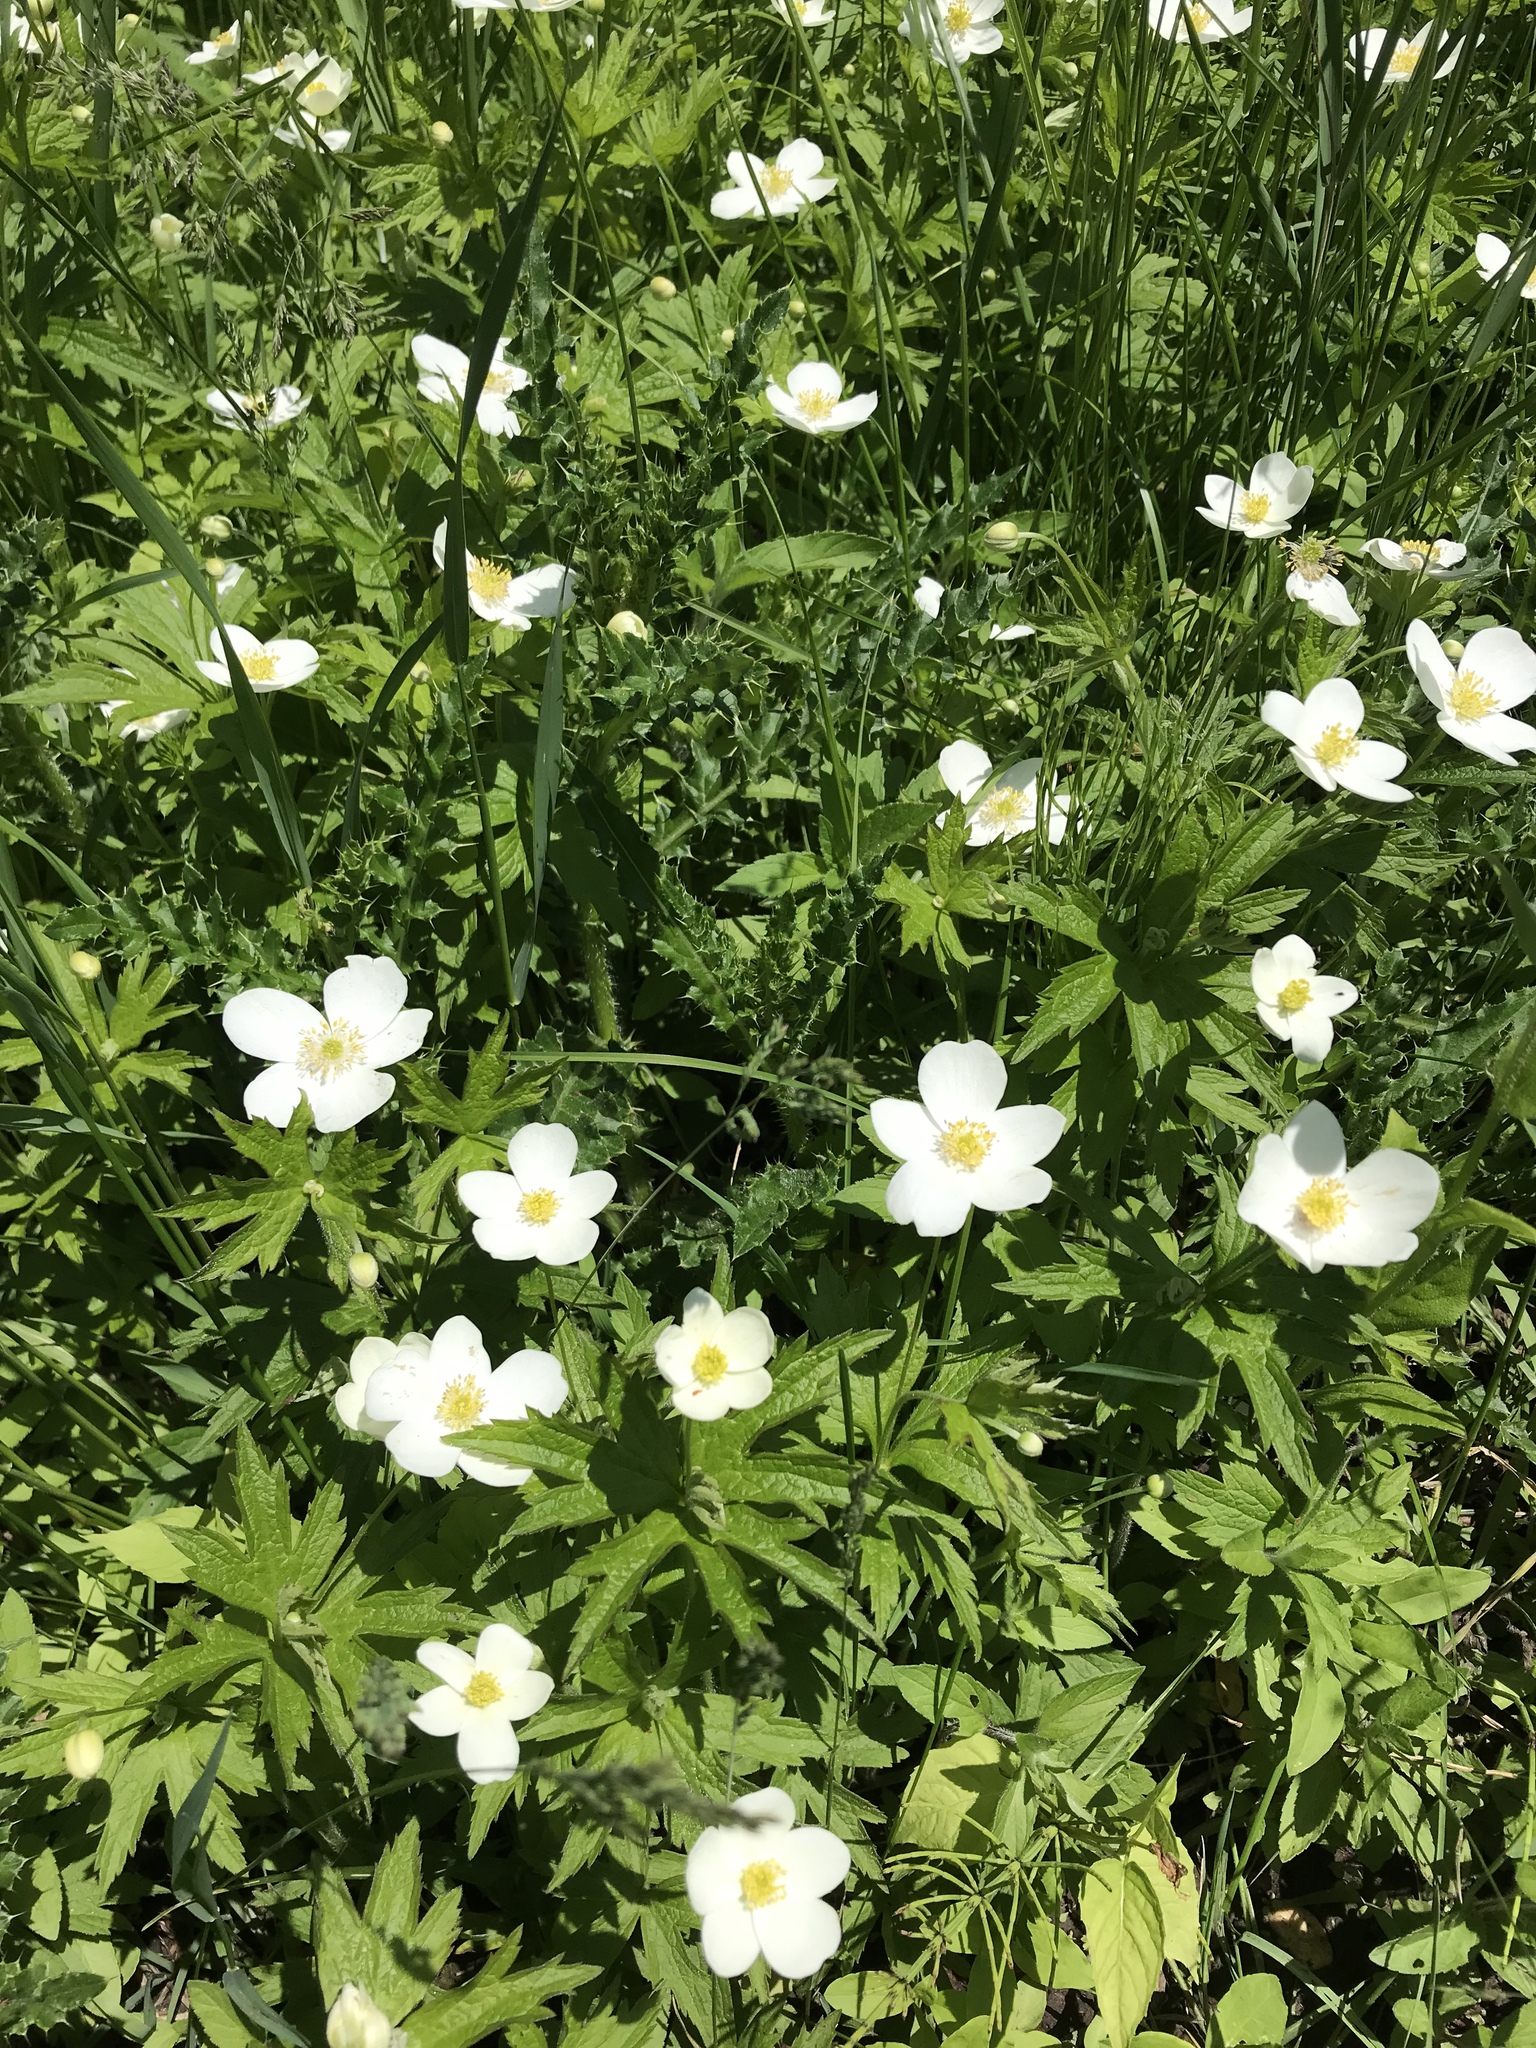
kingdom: Plantae
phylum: Tracheophyta
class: Magnoliopsida
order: Ranunculales
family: Ranunculaceae
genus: Anemonastrum
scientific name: Anemonastrum canadense
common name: Canada anemone
